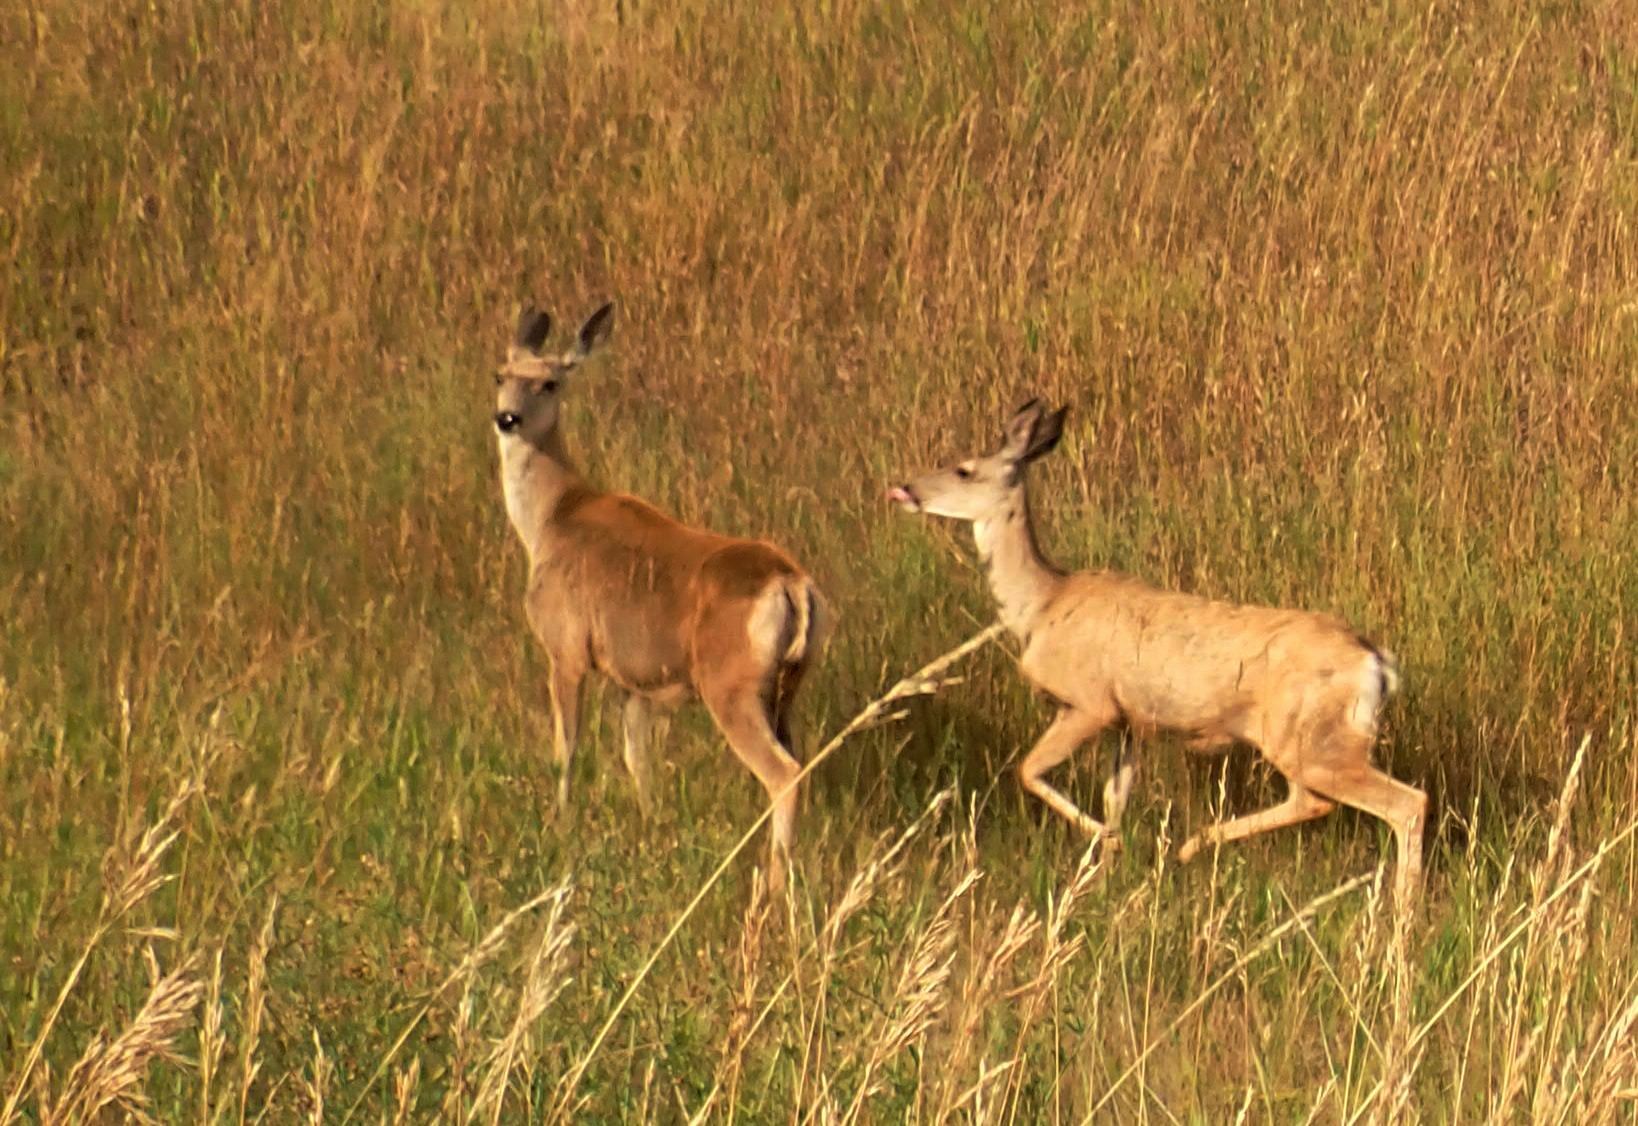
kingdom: Animalia
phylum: Chordata
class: Mammalia
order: Artiodactyla
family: Cervidae
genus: Odocoileus
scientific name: Odocoileus hemionus
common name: Mule deer
